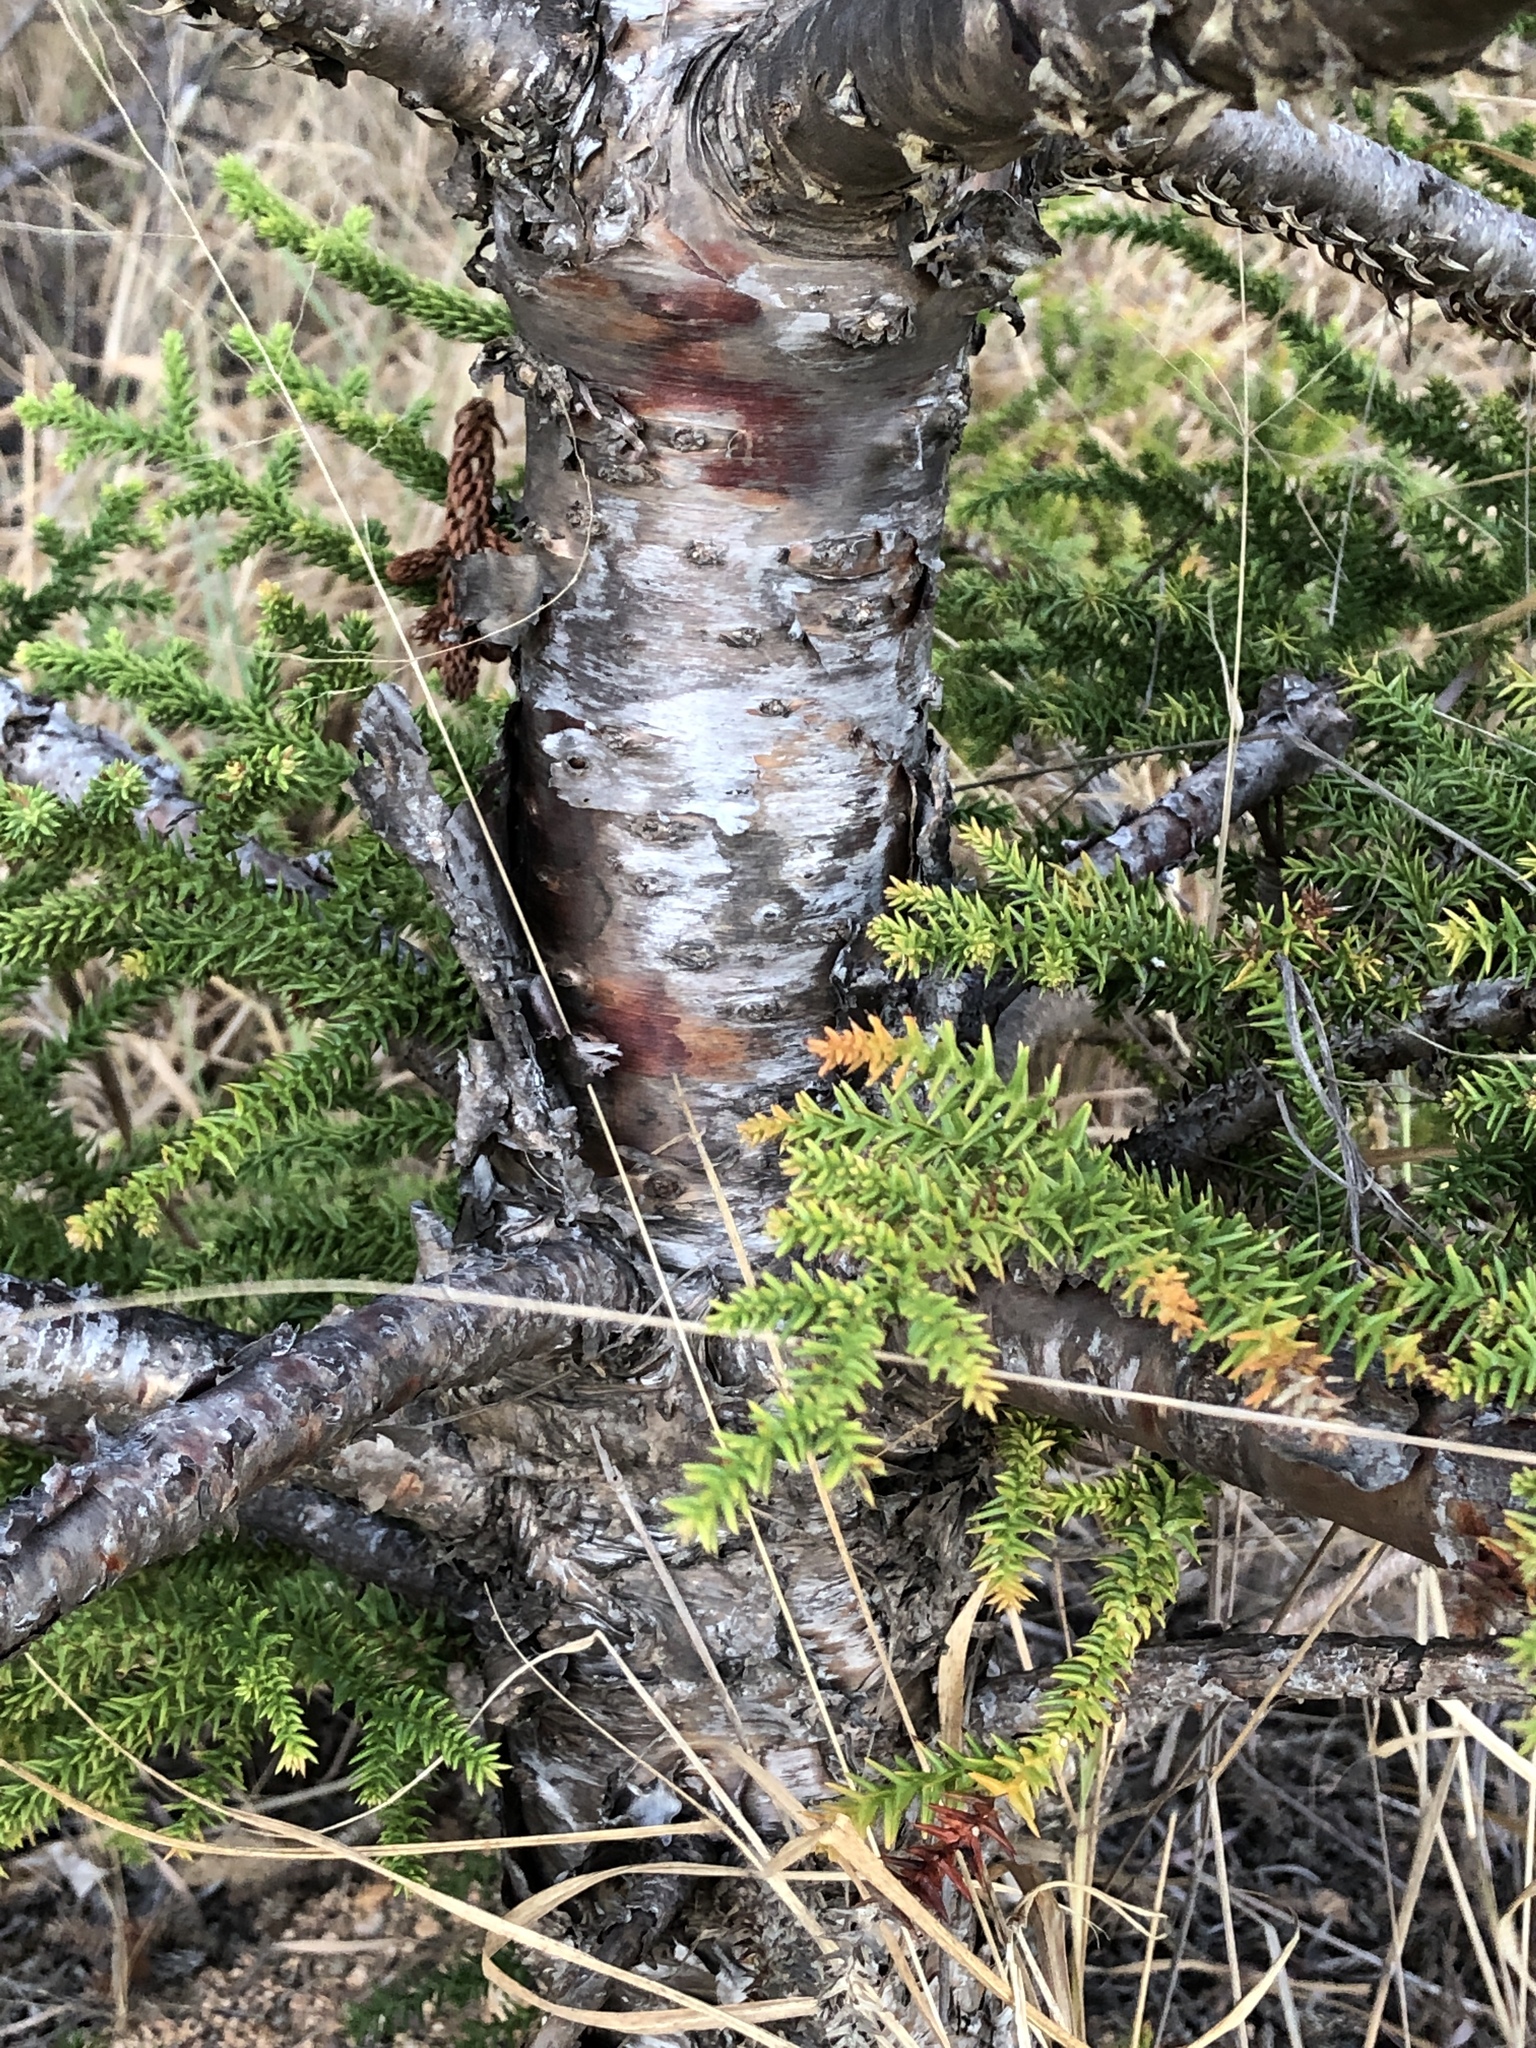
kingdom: Plantae
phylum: Tracheophyta
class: Pinopsida
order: Pinales
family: Araucariaceae
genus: Araucaria
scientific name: Araucaria cunninghamii
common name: Colonial pine
